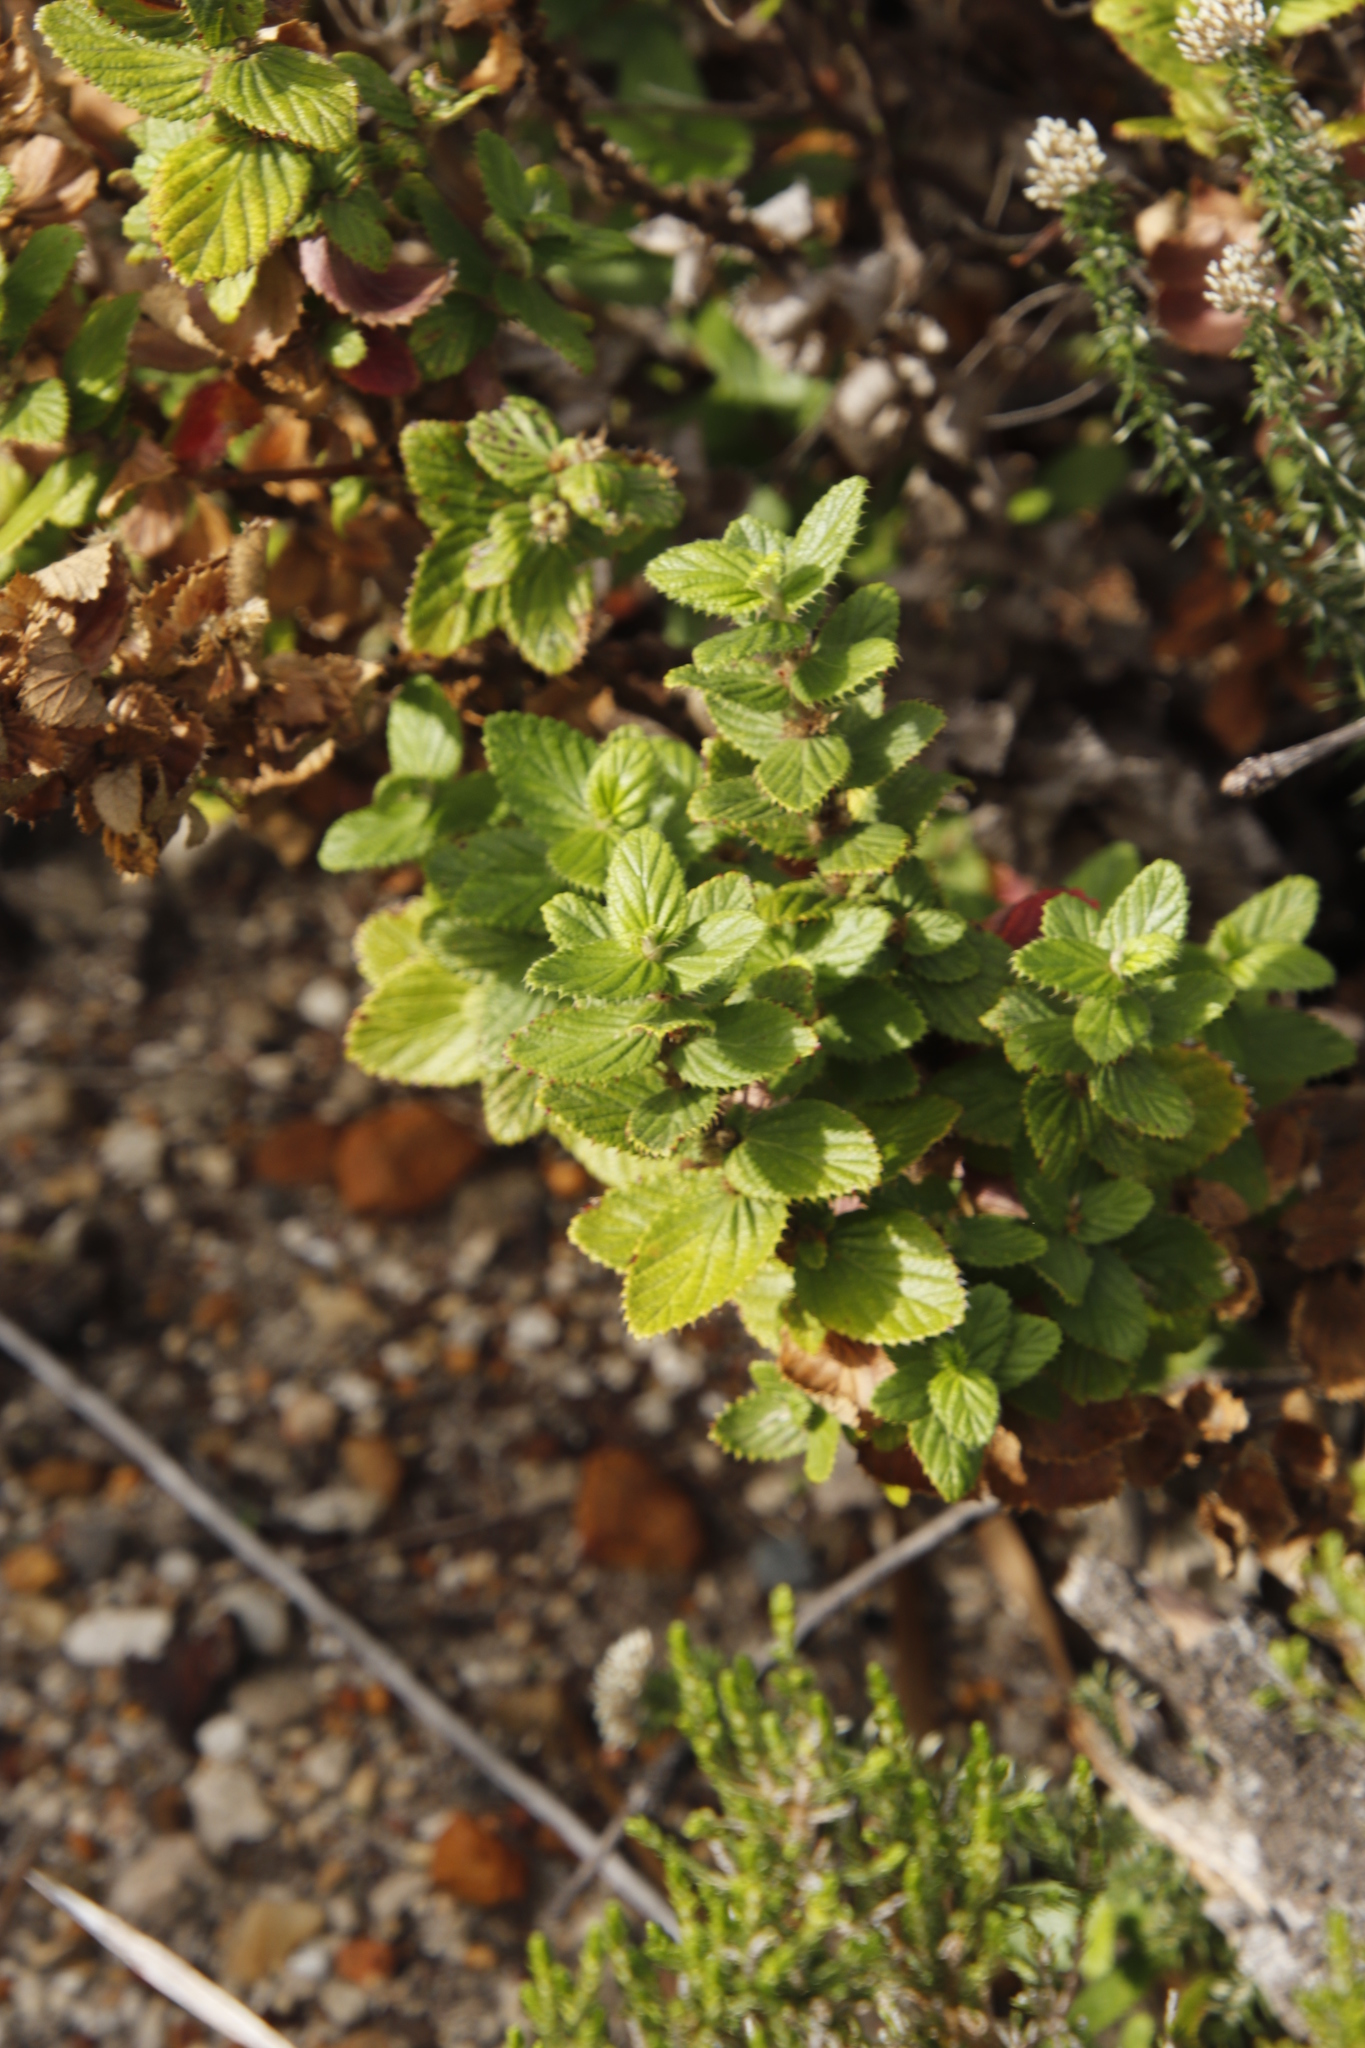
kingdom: Plantae
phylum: Tracheophyta
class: Magnoliopsida
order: Rosales
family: Rosaceae
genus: Cliffortia
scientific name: Cliffortia hirsuta
